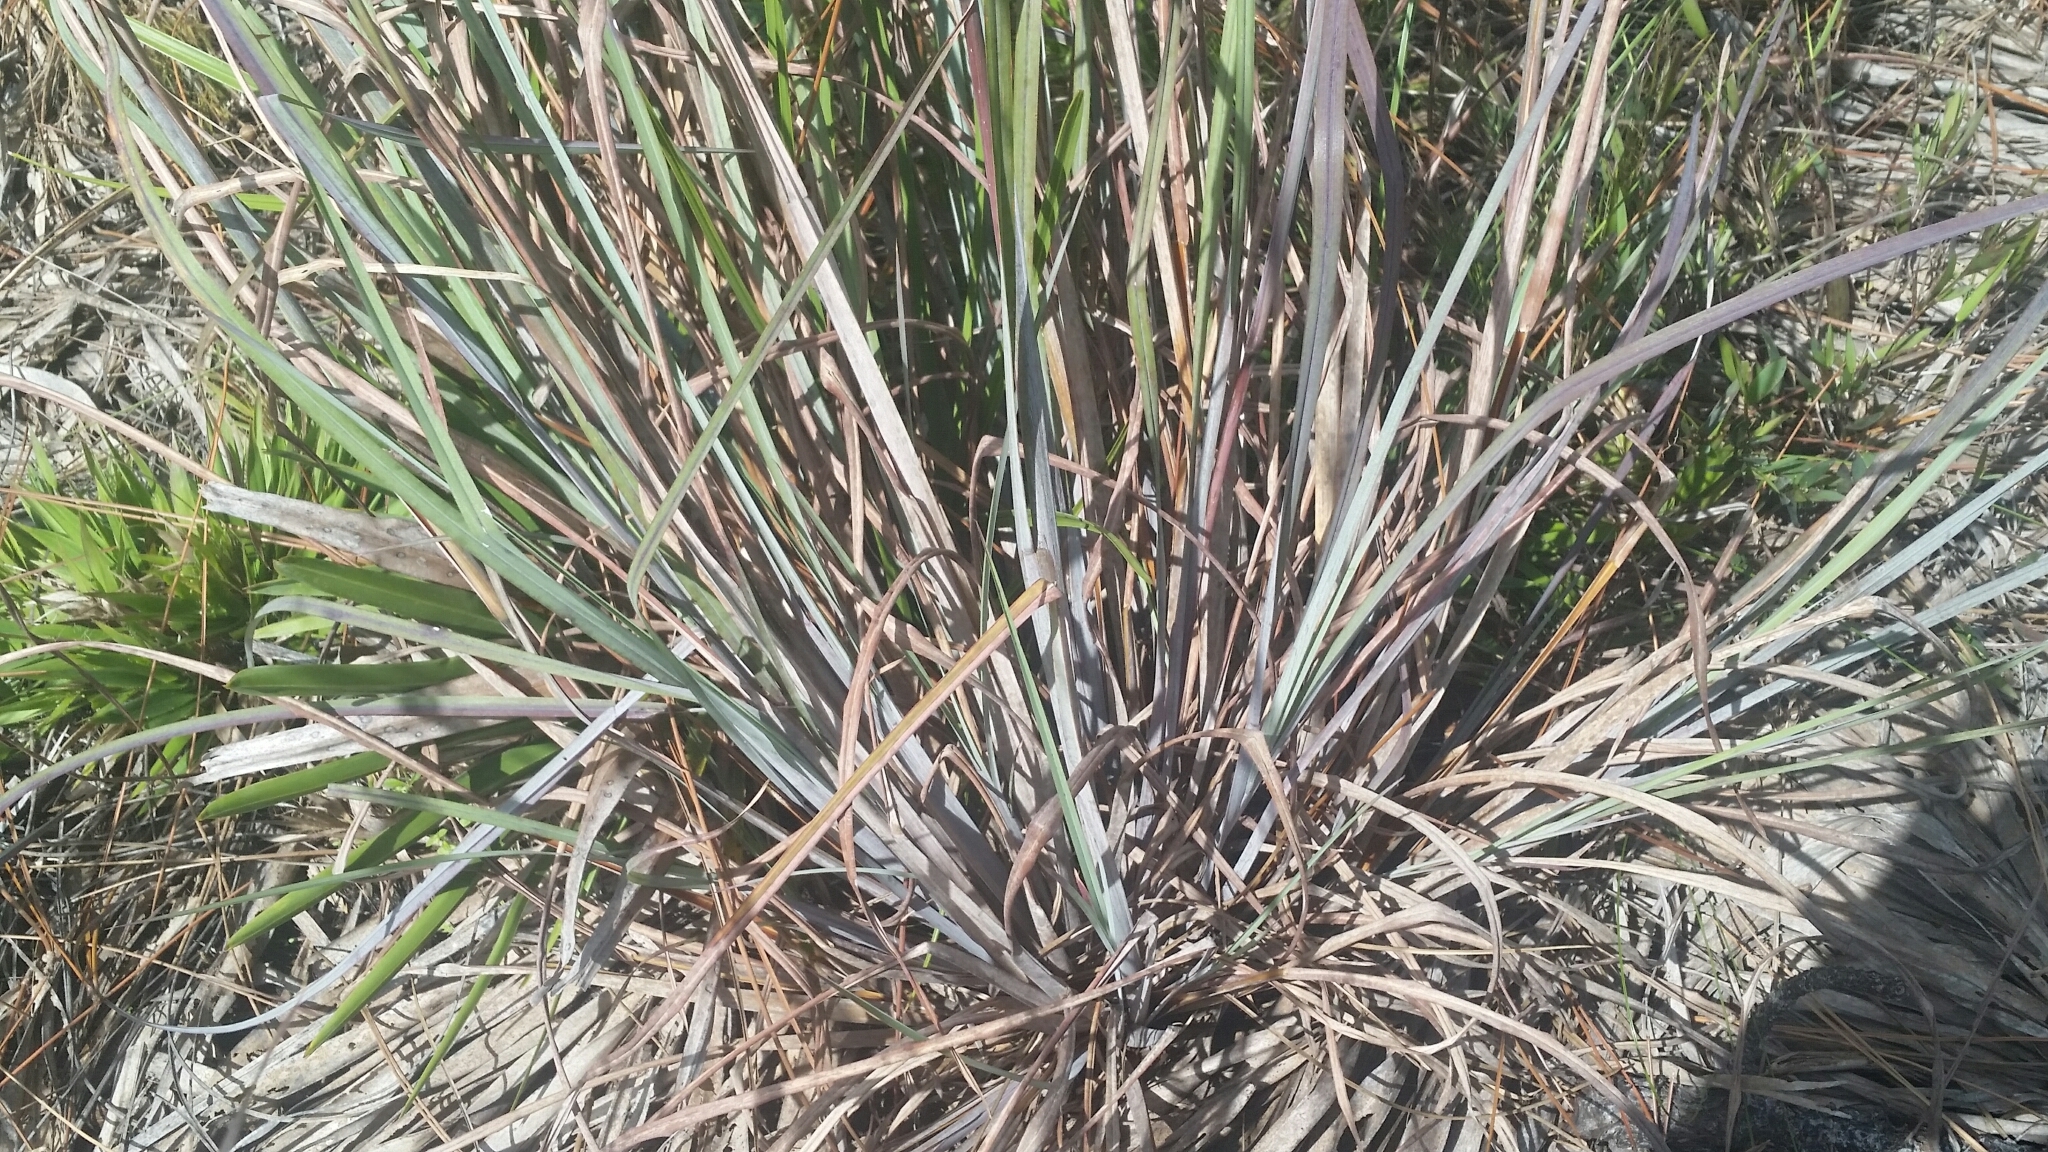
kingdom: Plantae
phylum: Tracheophyta
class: Liliopsida
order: Poales
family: Poaceae
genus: Andropogon
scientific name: Andropogon cretaceus
